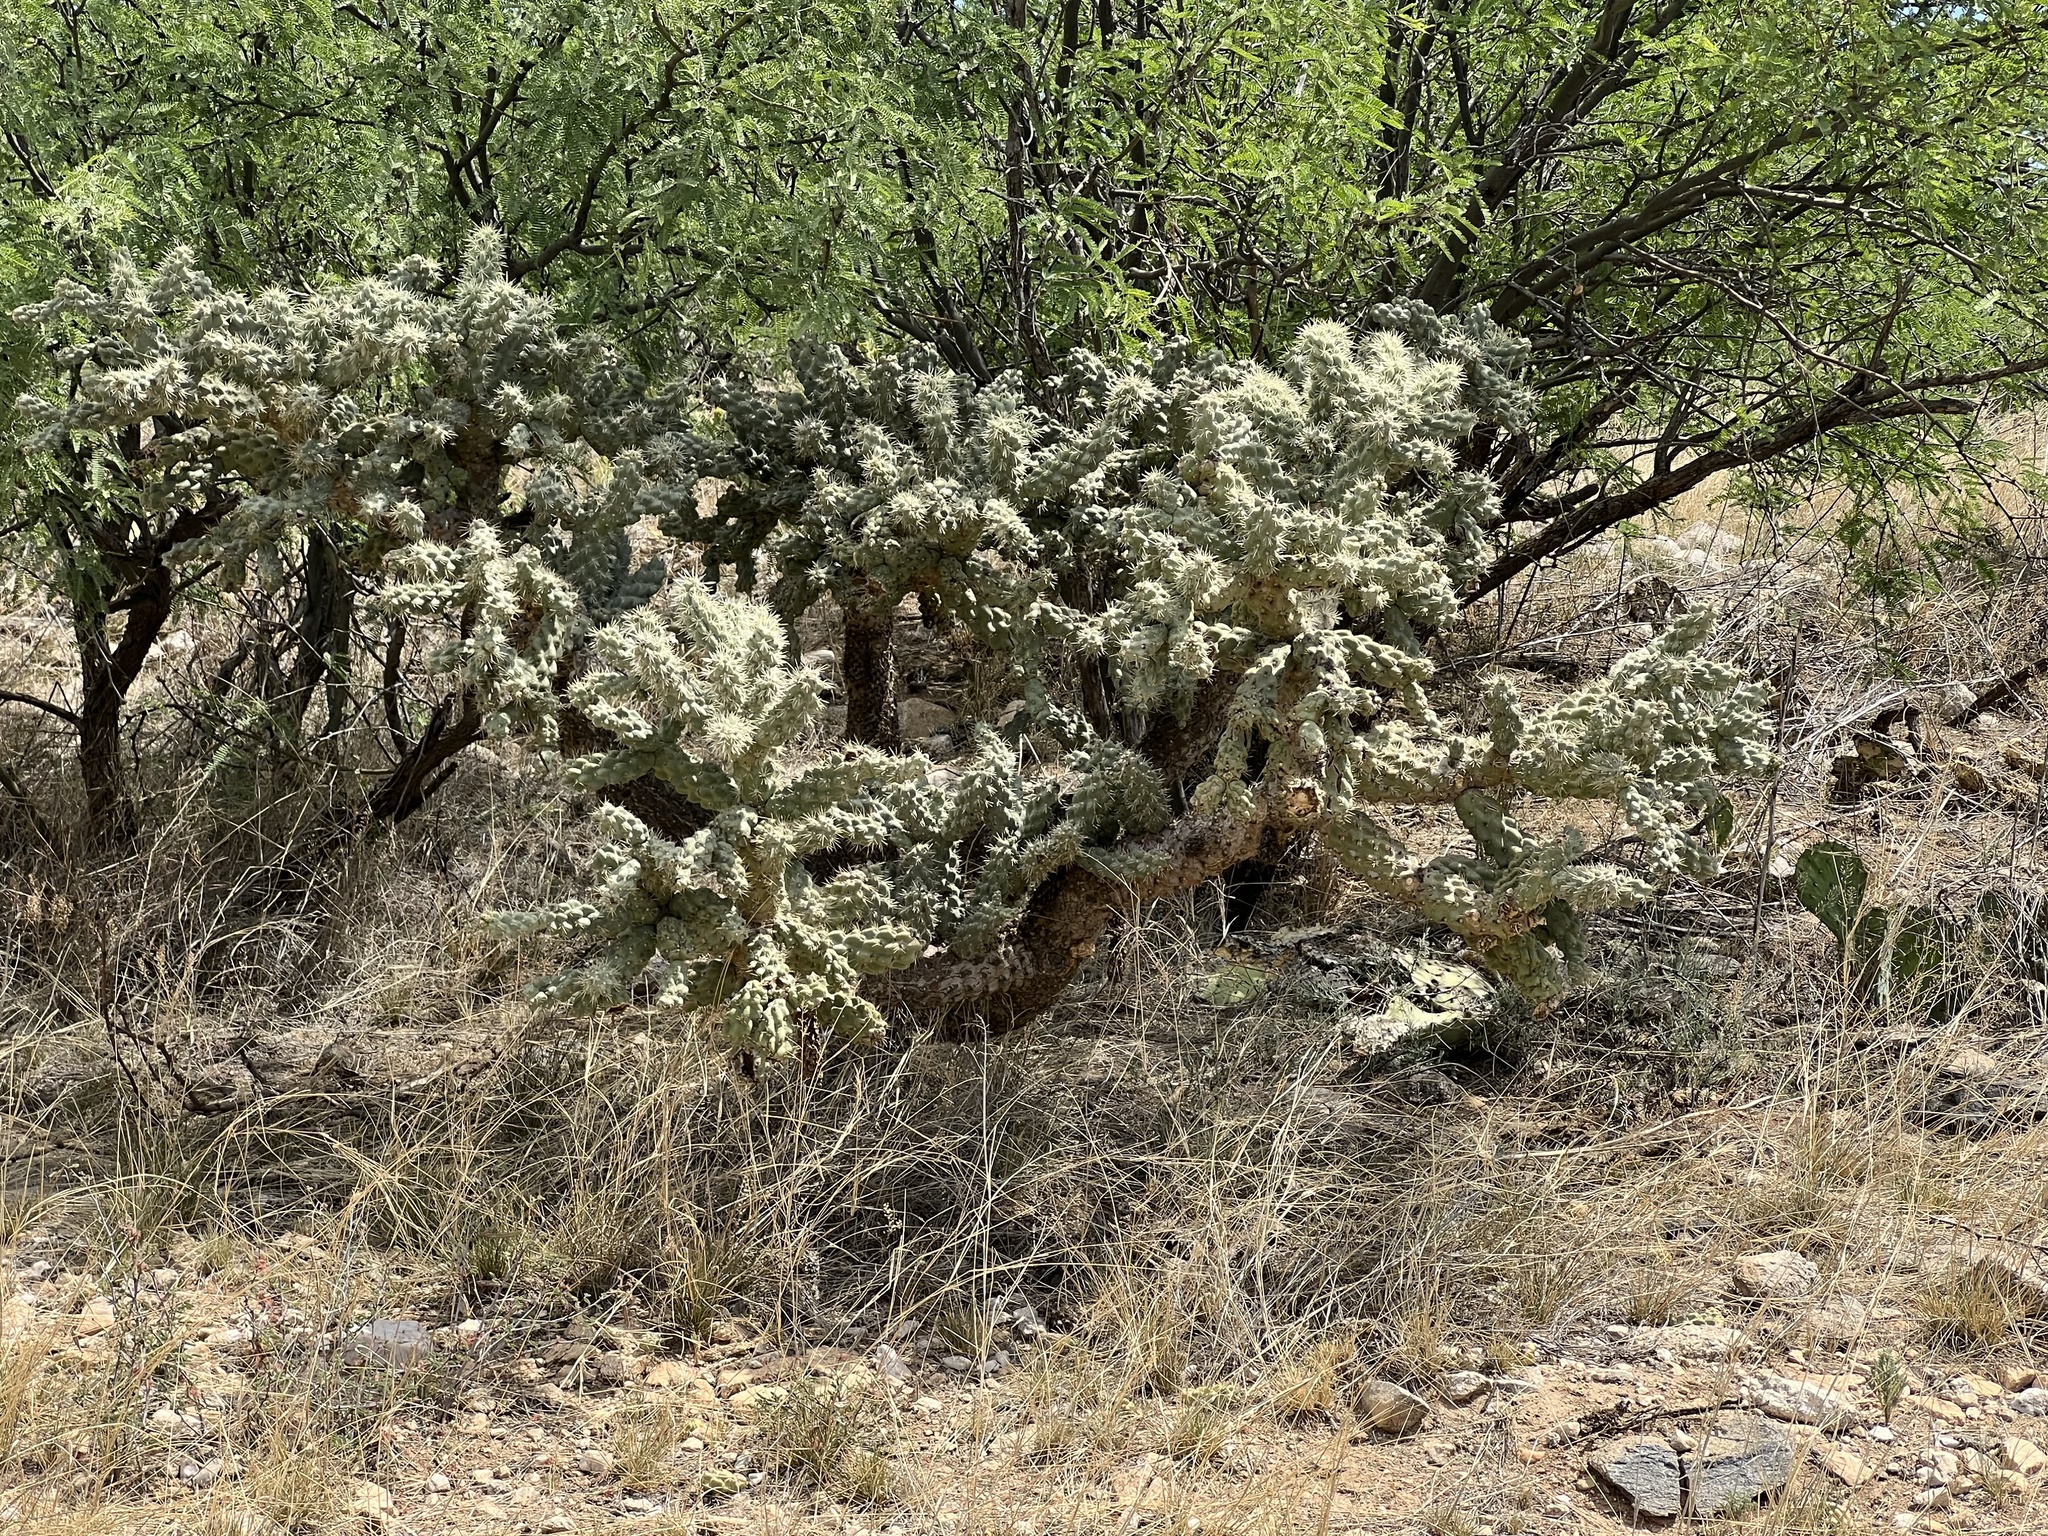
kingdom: Plantae
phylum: Tracheophyta
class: Magnoliopsida
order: Caryophyllales
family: Cactaceae
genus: Cylindropuntia
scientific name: Cylindropuntia fulgida
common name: Jumping cholla
